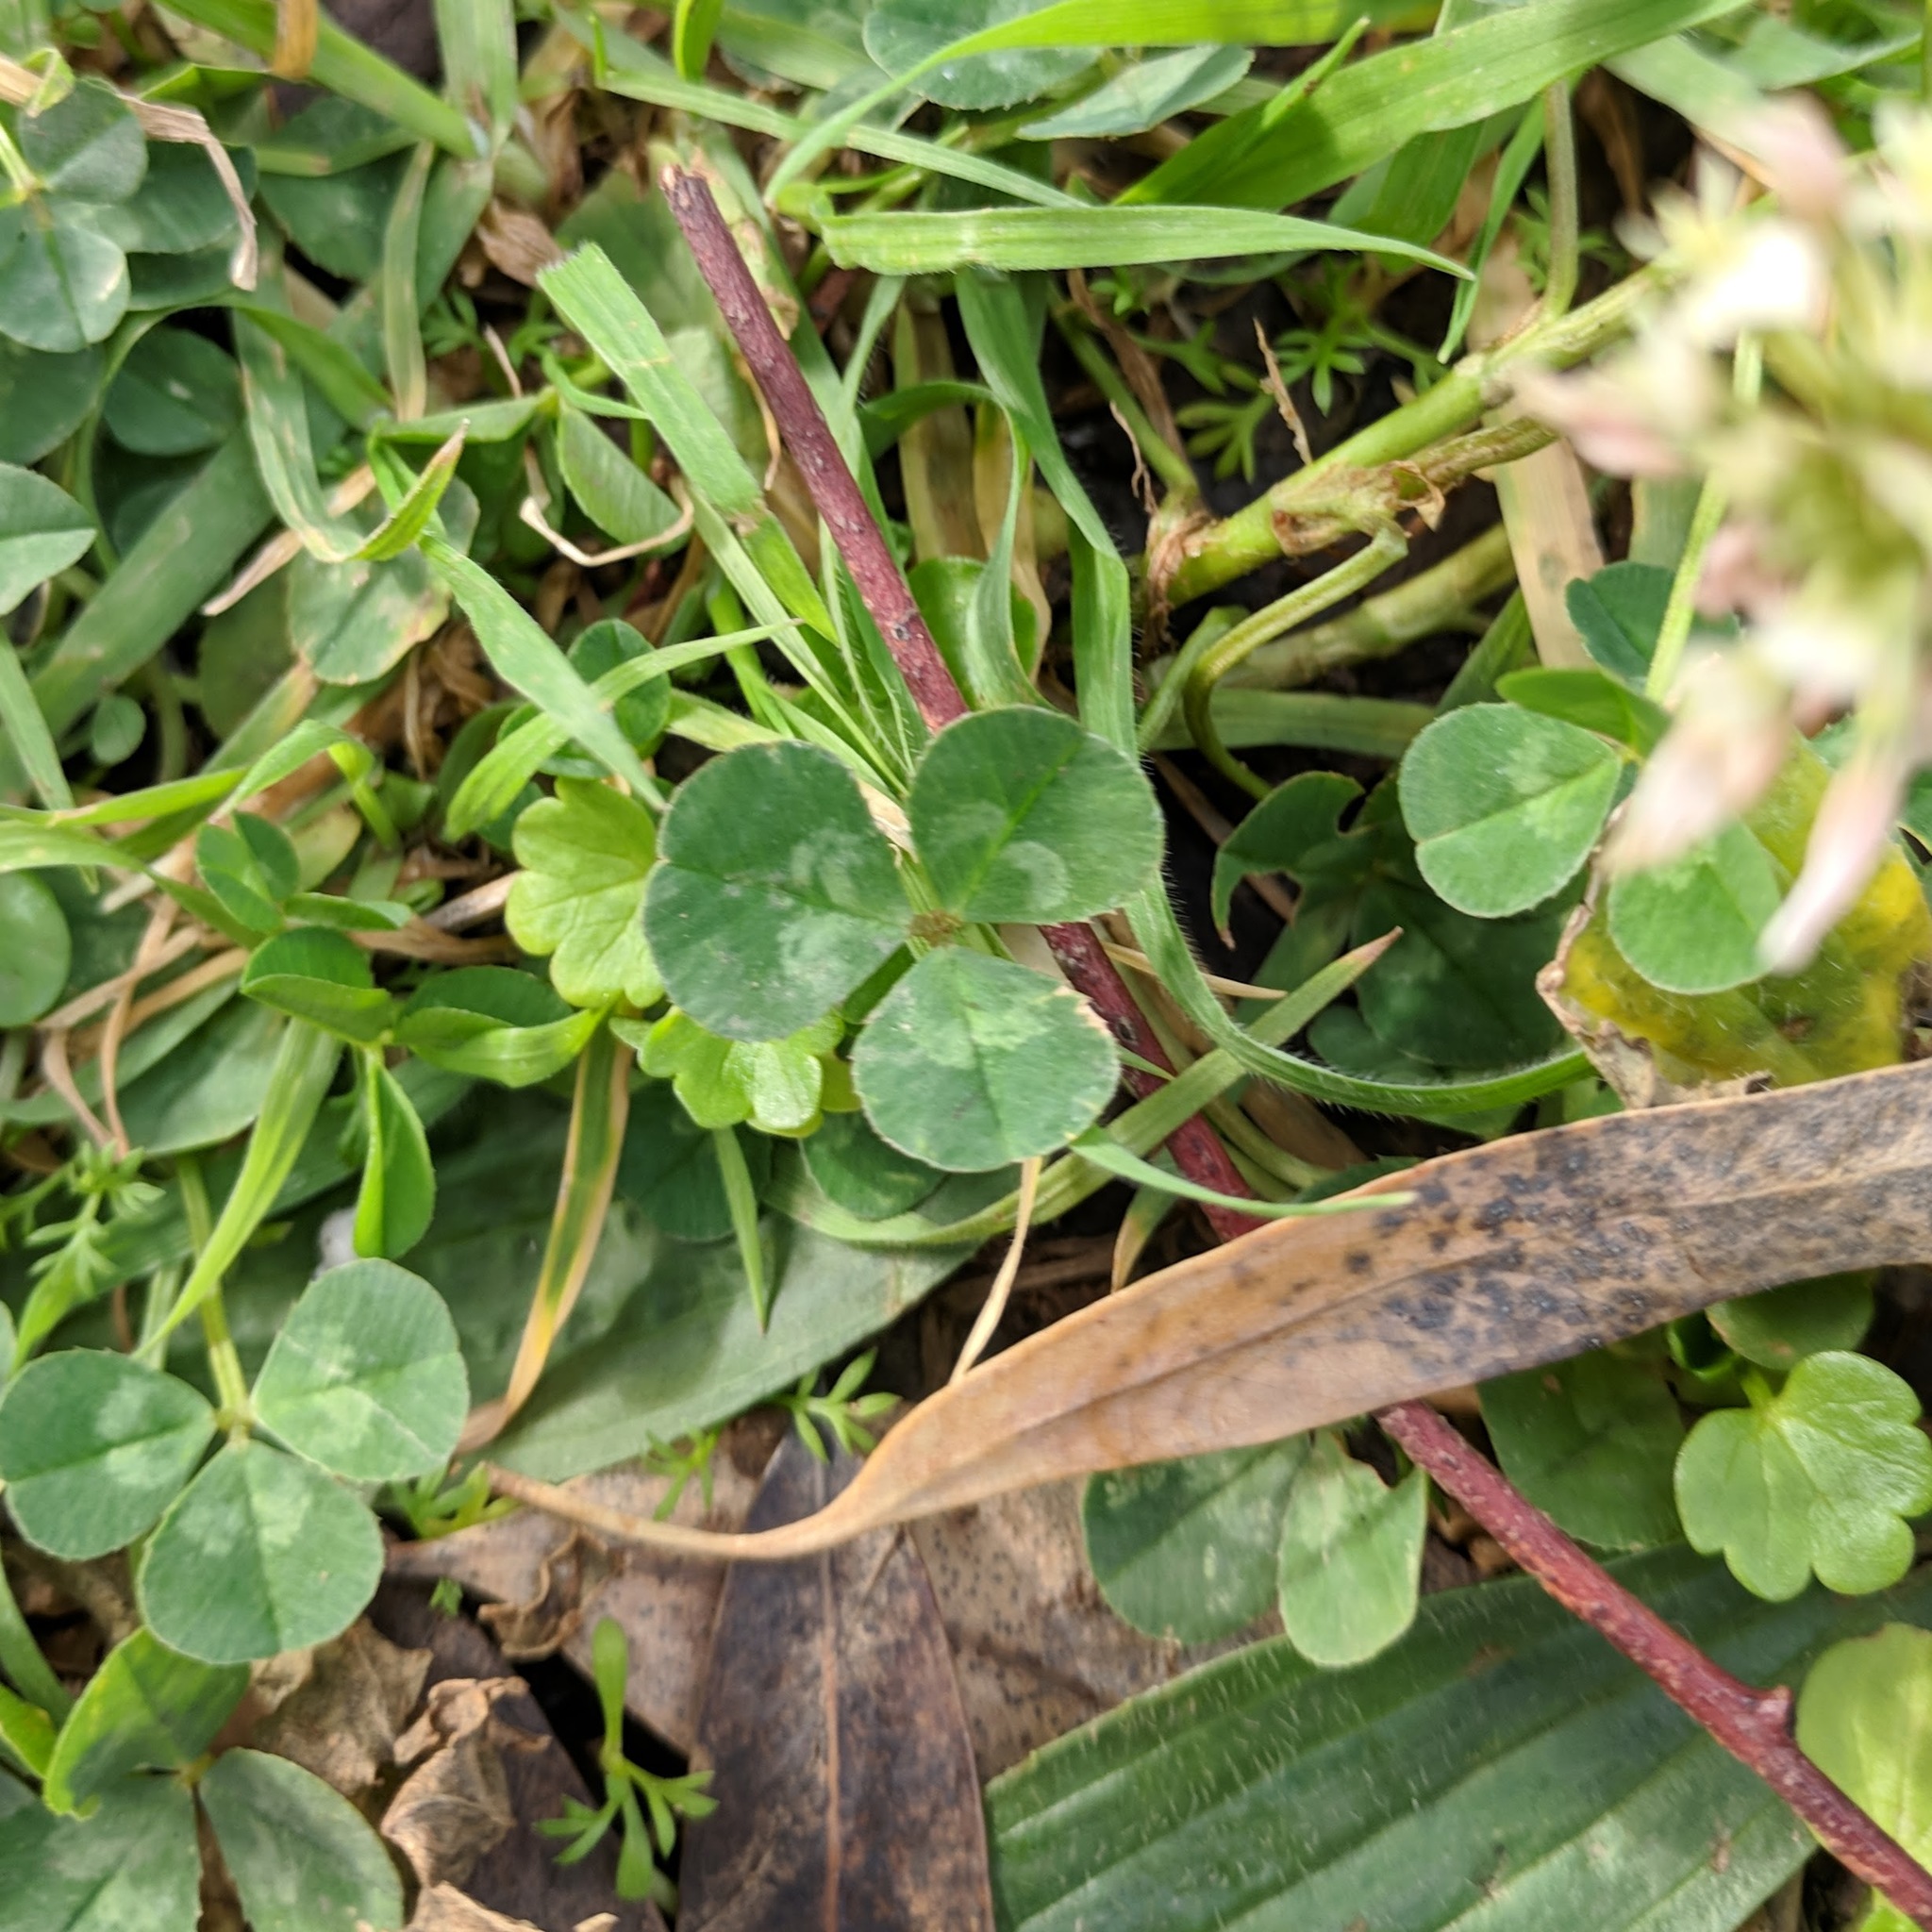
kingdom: Plantae
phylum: Tracheophyta
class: Magnoliopsida
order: Fabales
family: Fabaceae
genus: Trifolium
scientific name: Trifolium repens
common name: White clover
